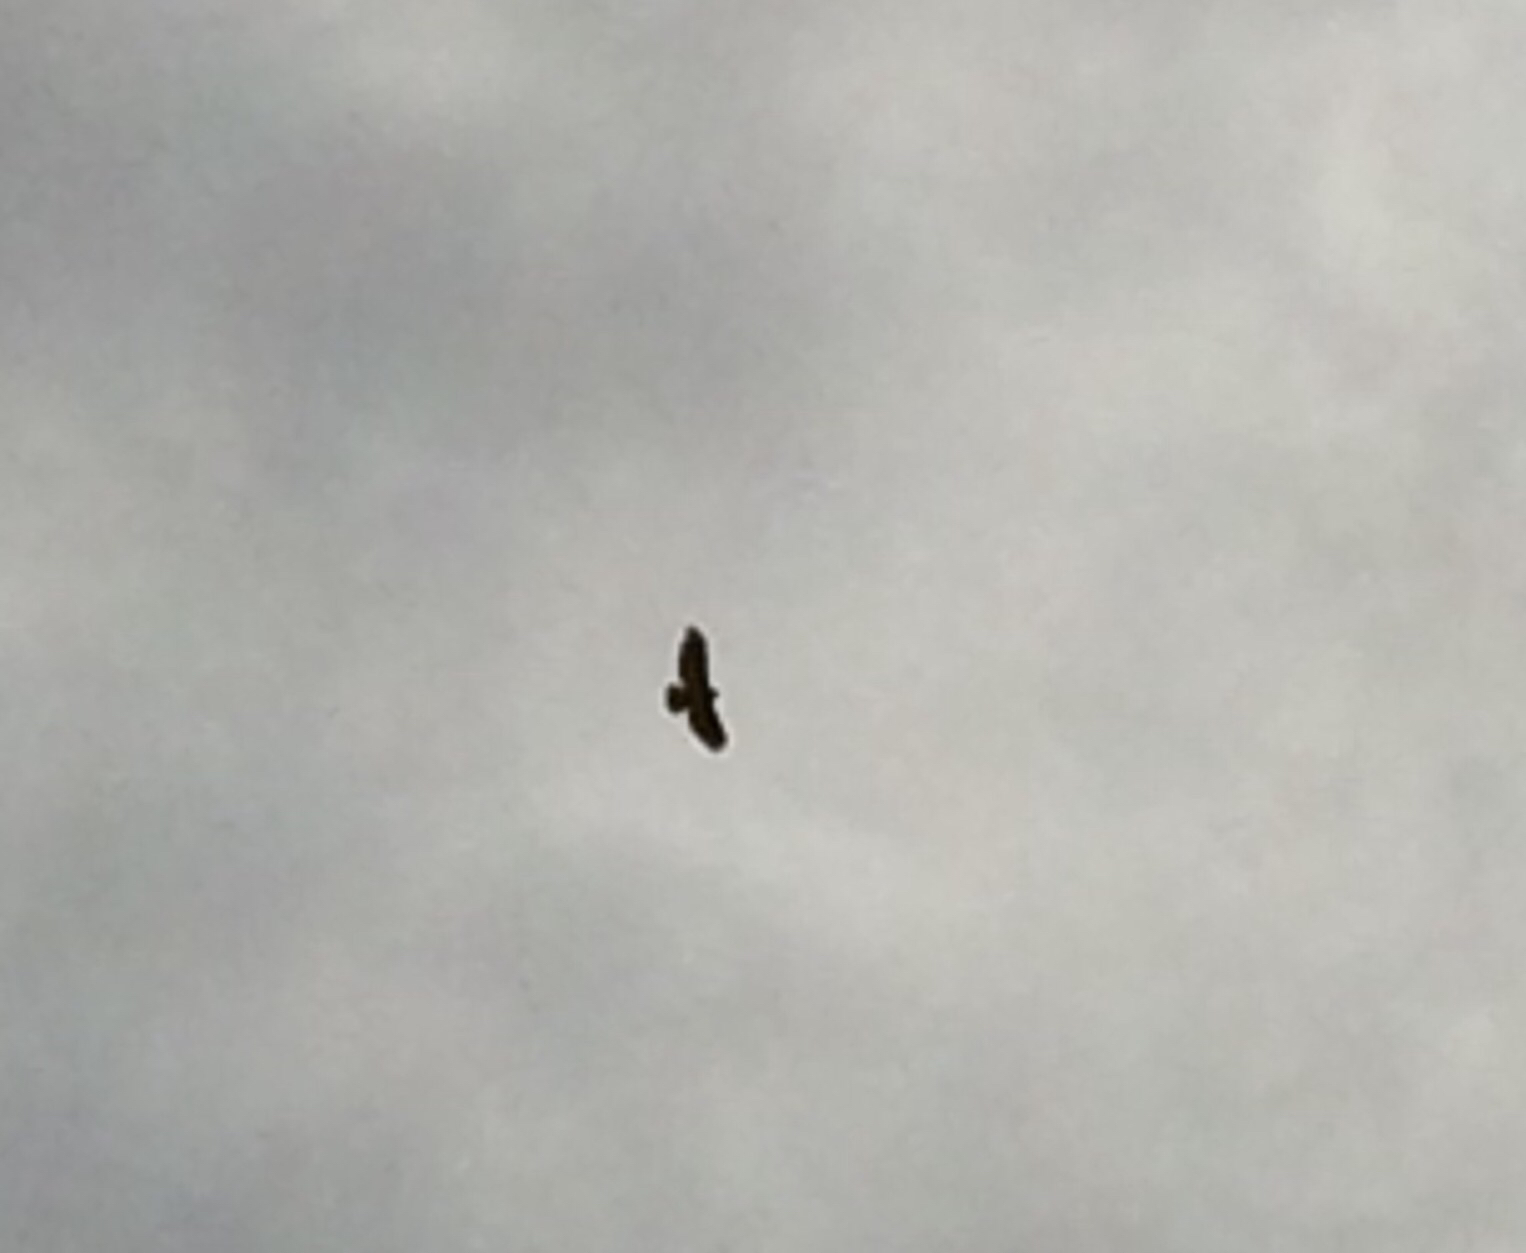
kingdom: Animalia
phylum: Chordata
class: Aves
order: Accipitriformes
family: Accipitridae
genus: Buteo
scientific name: Buteo jamaicensis
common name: Red-tailed hawk
